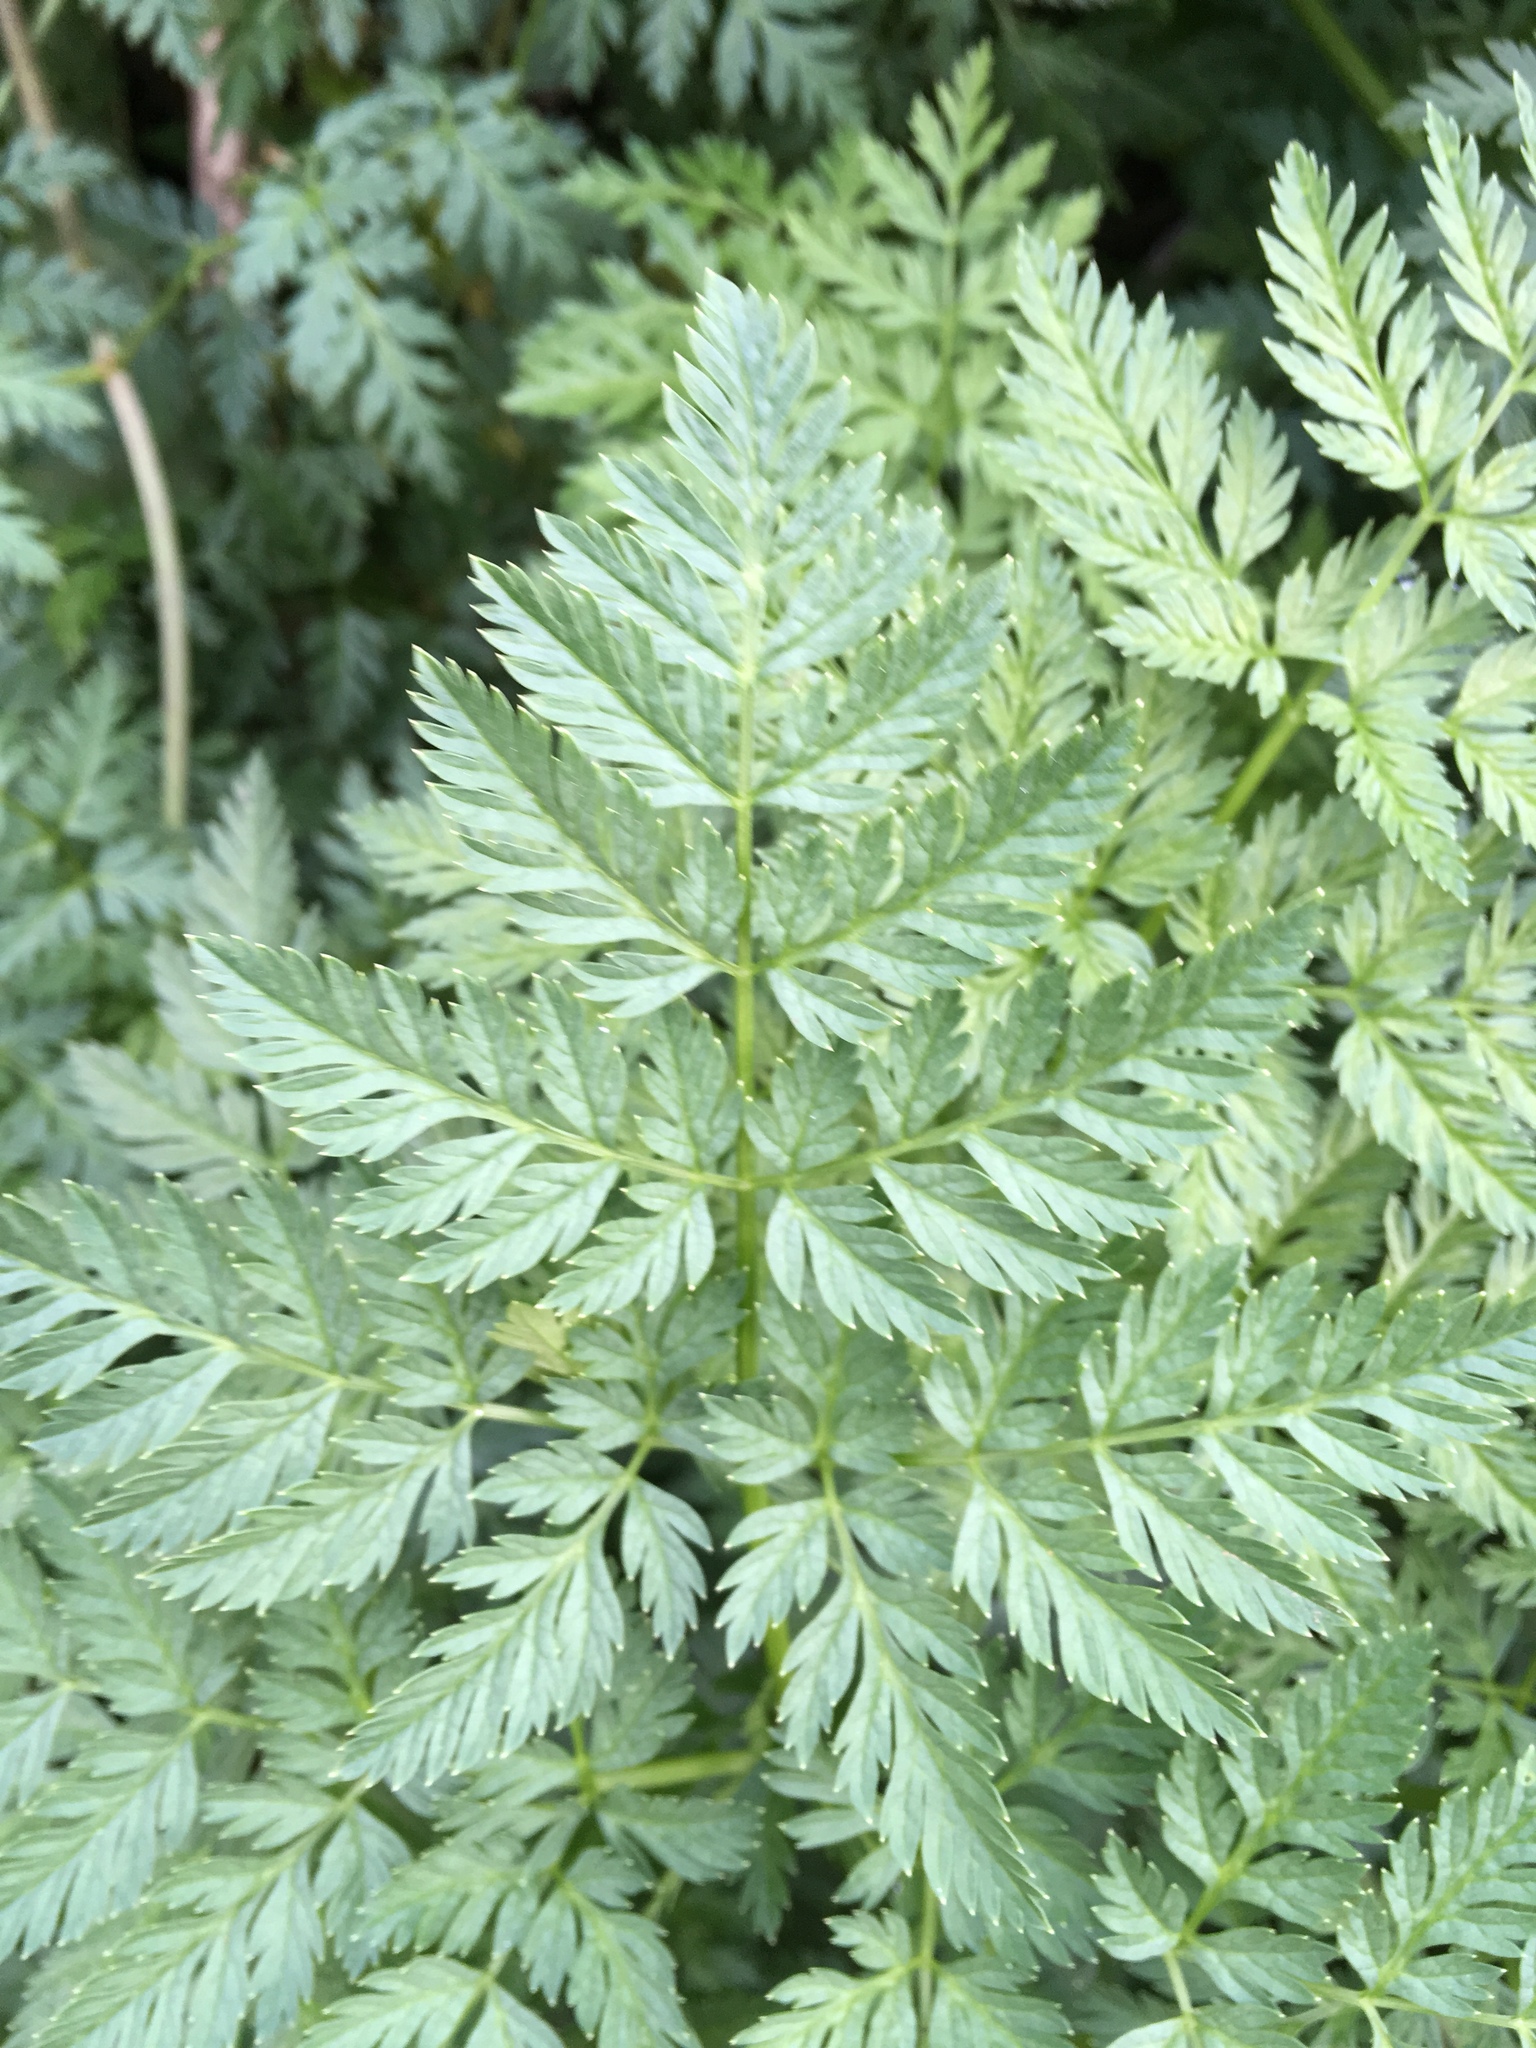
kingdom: Plantae
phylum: Tracheophyta
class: Magnoliopsida
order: Apiales
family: Apiaceae
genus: Conium
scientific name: Conium maculatum
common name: Hemlock
